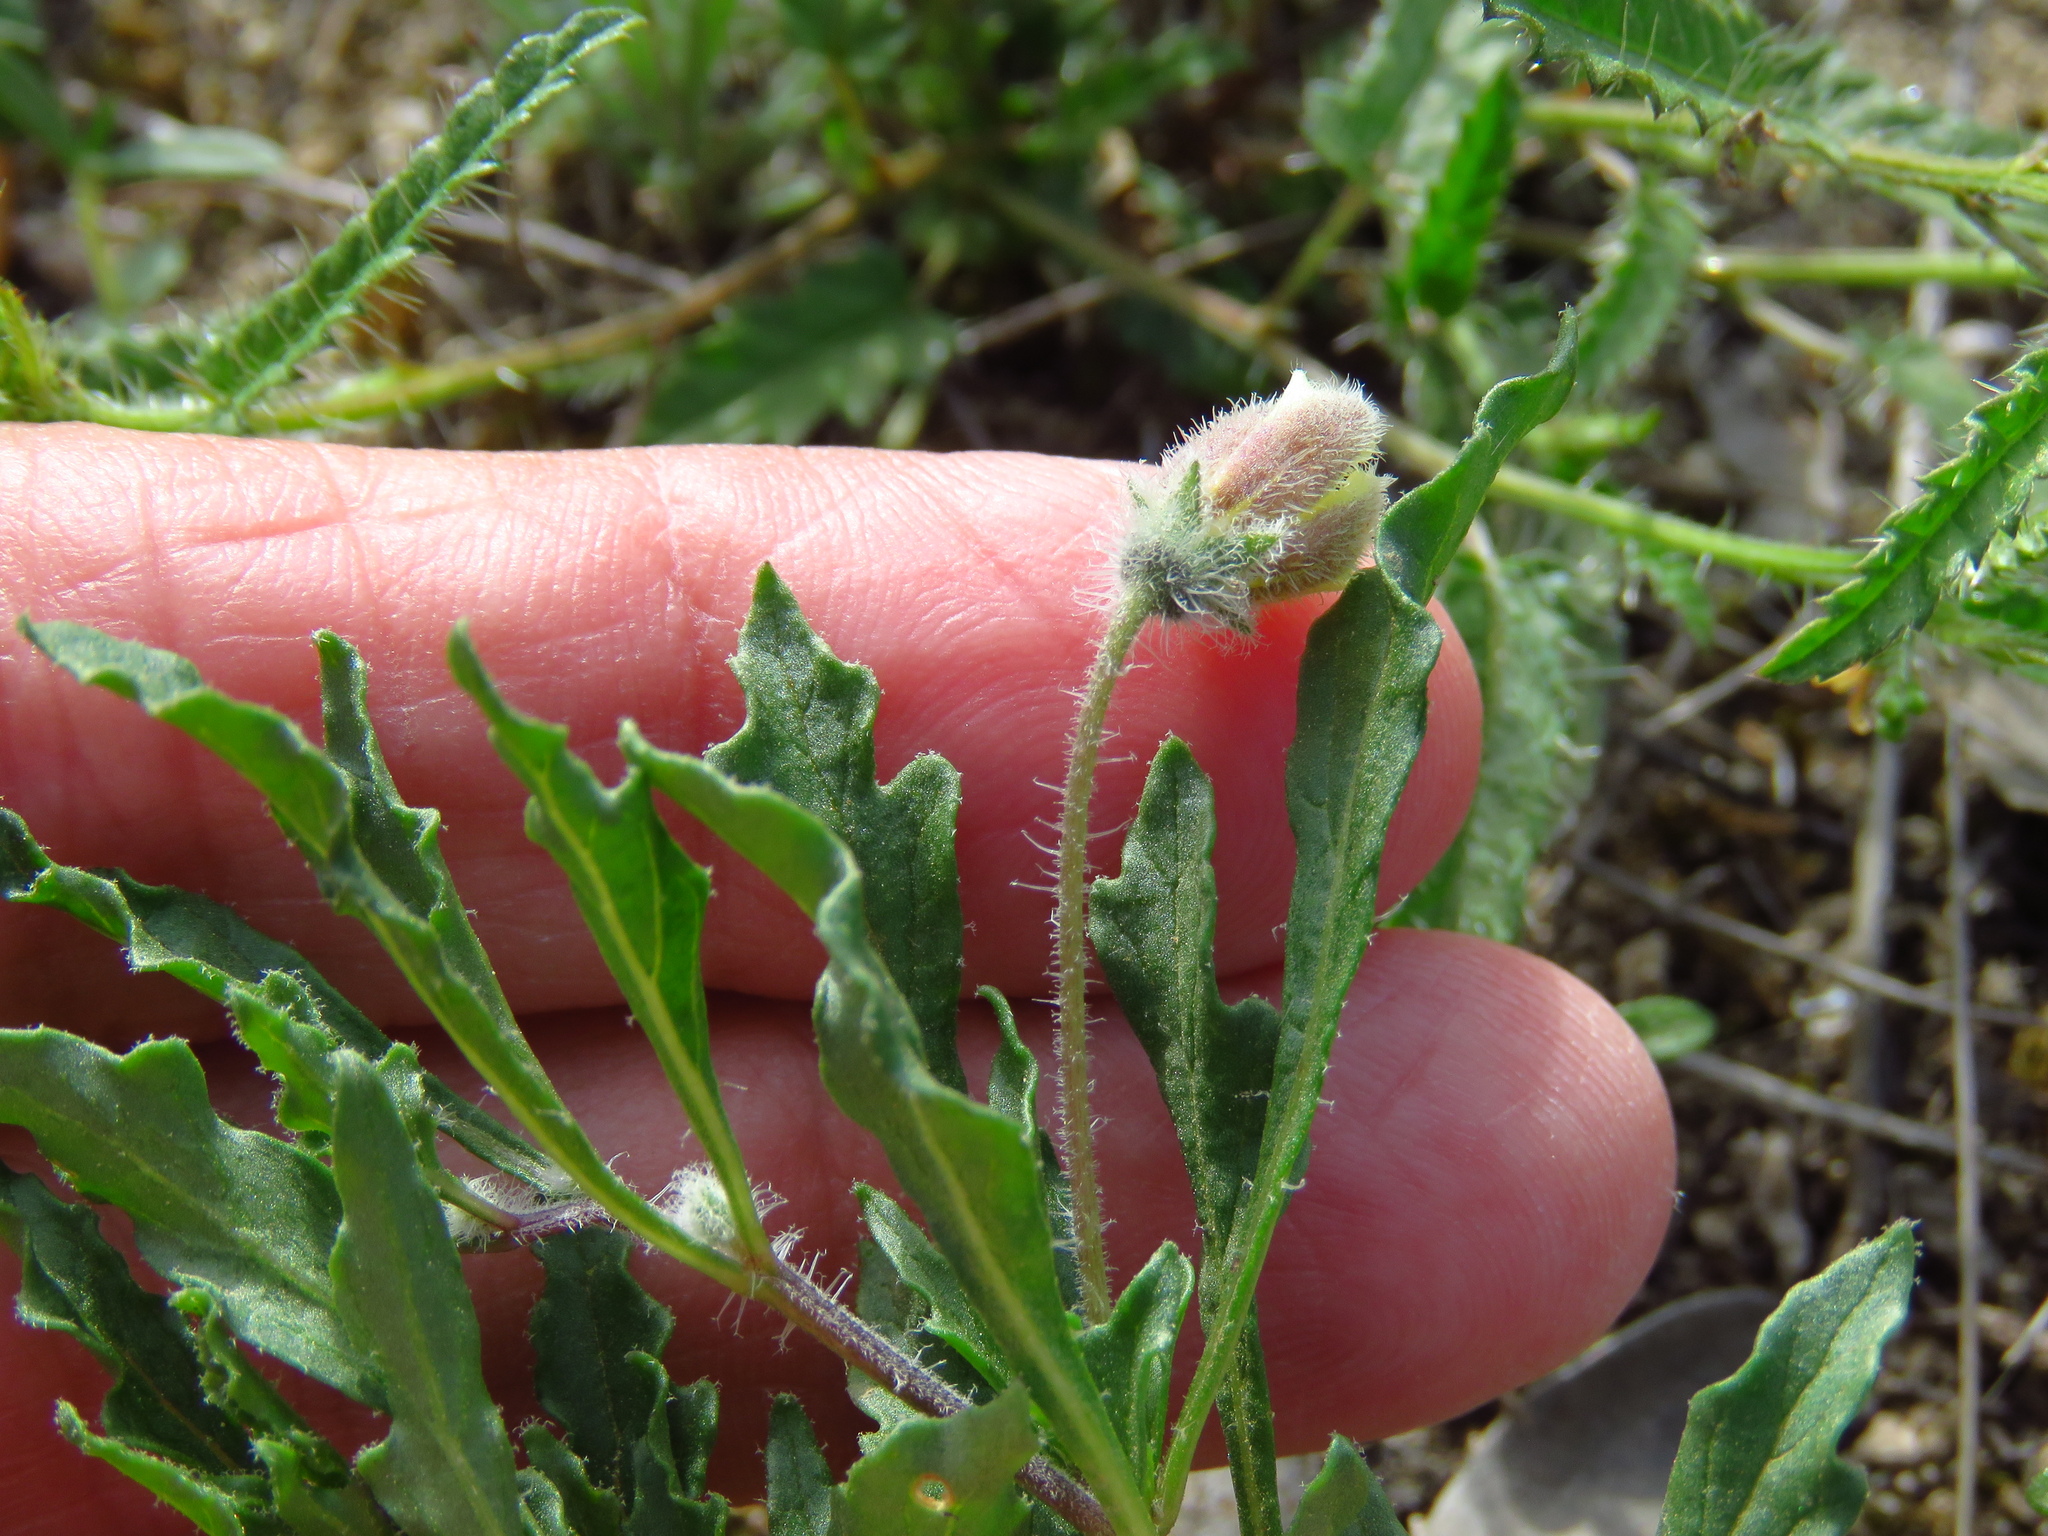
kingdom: Plantae
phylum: Tracheophyta
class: Magnoliopsida
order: Solanales
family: Solanaceae
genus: Chamaesaracha
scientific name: Chamaesaracha edwardsiana
